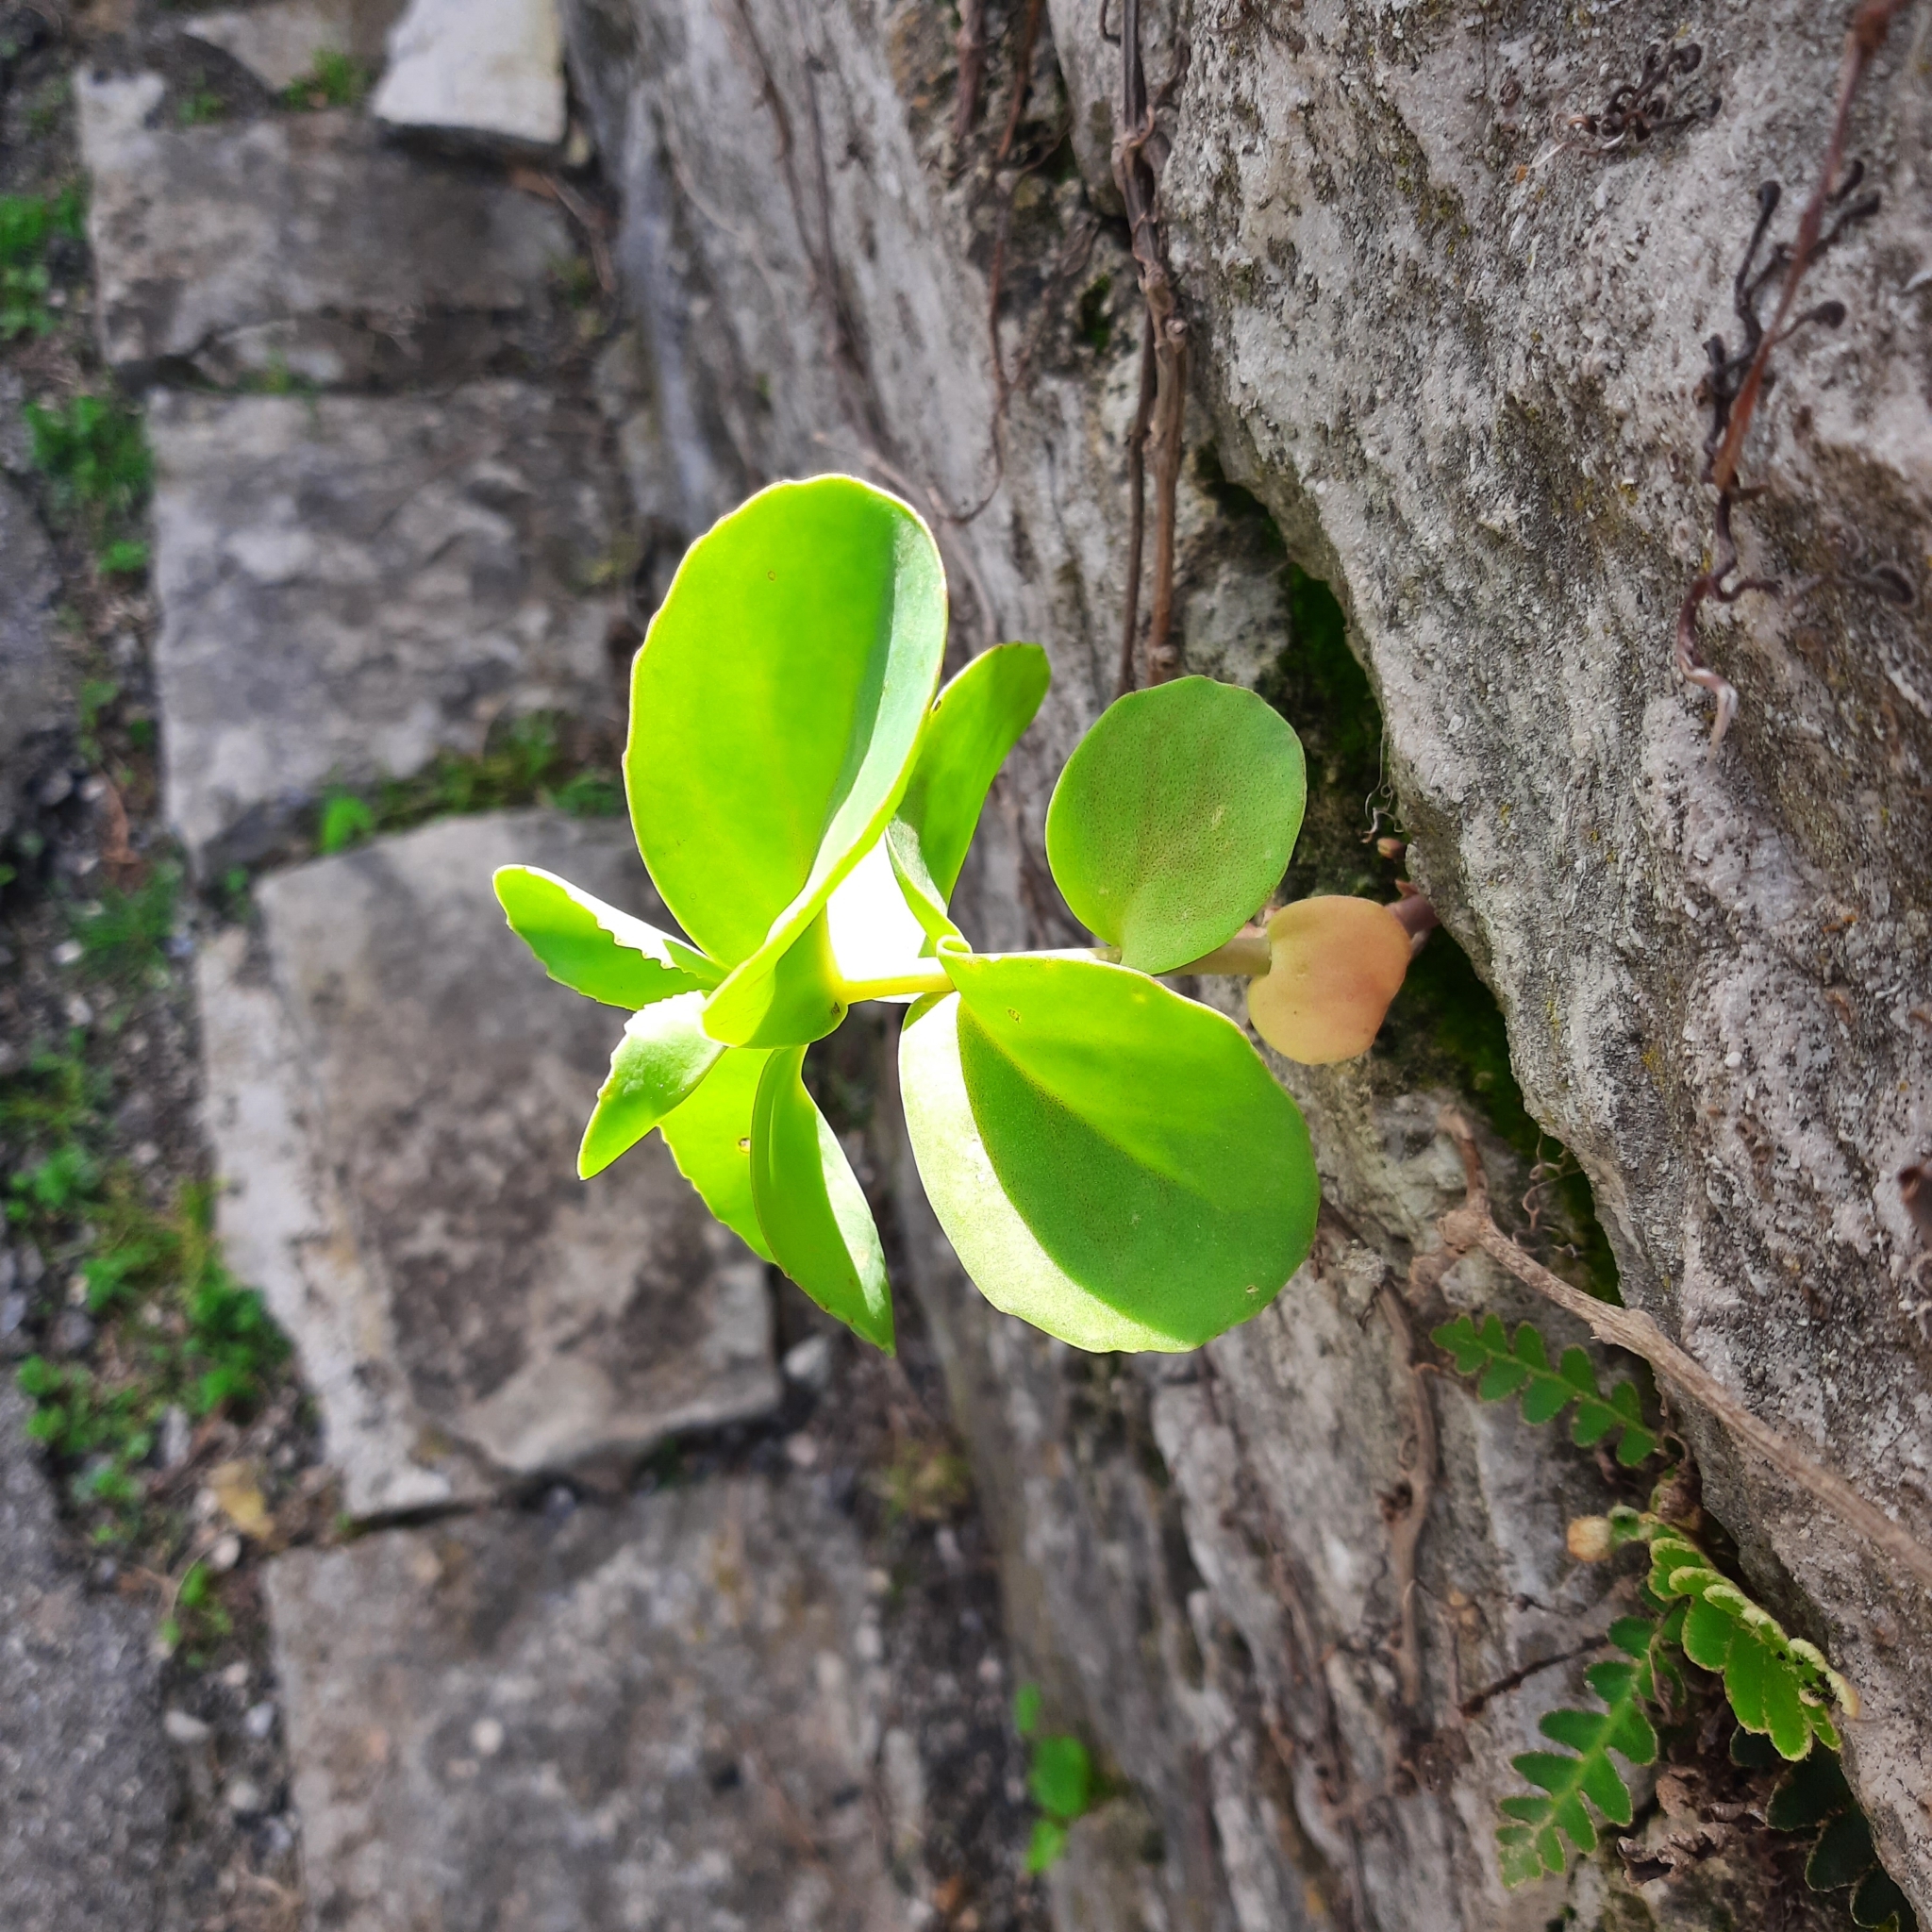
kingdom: Plantae
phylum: Tracheophyta
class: Magnoliopsida
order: Saxifragales
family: Crassulaceae
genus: Hylotelephium
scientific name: Hylotelephium maximum
